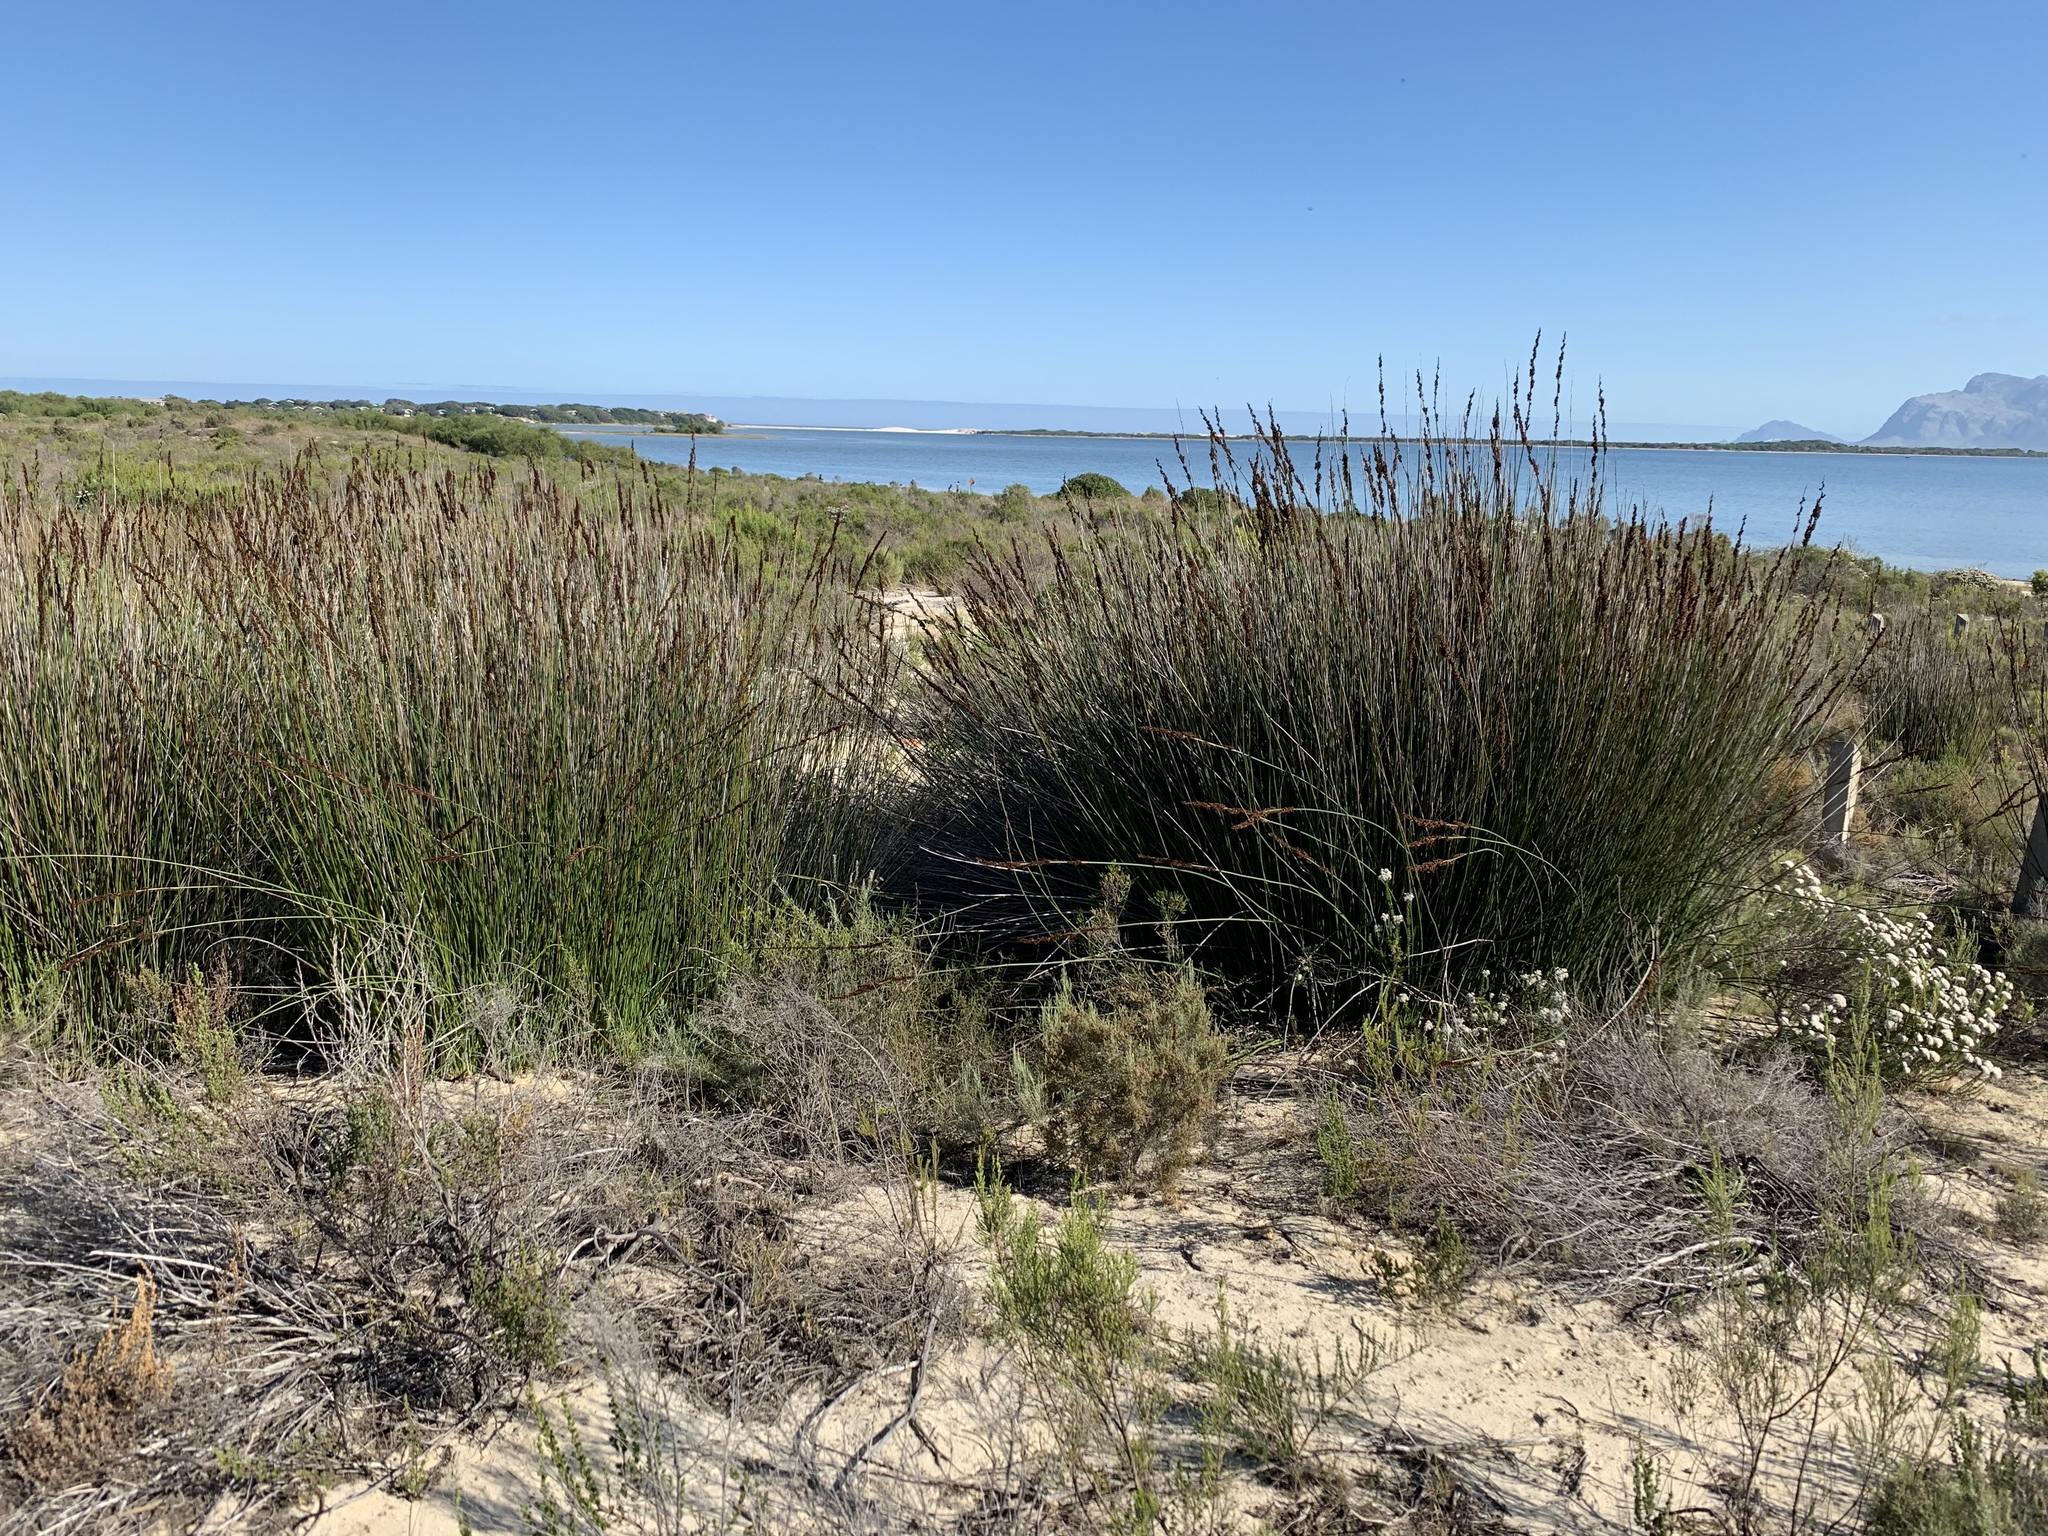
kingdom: Plantae
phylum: Tracheophyta
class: Liliopsida
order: Poales
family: Restionaceae
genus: Elegia
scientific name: Elegia tectorum
